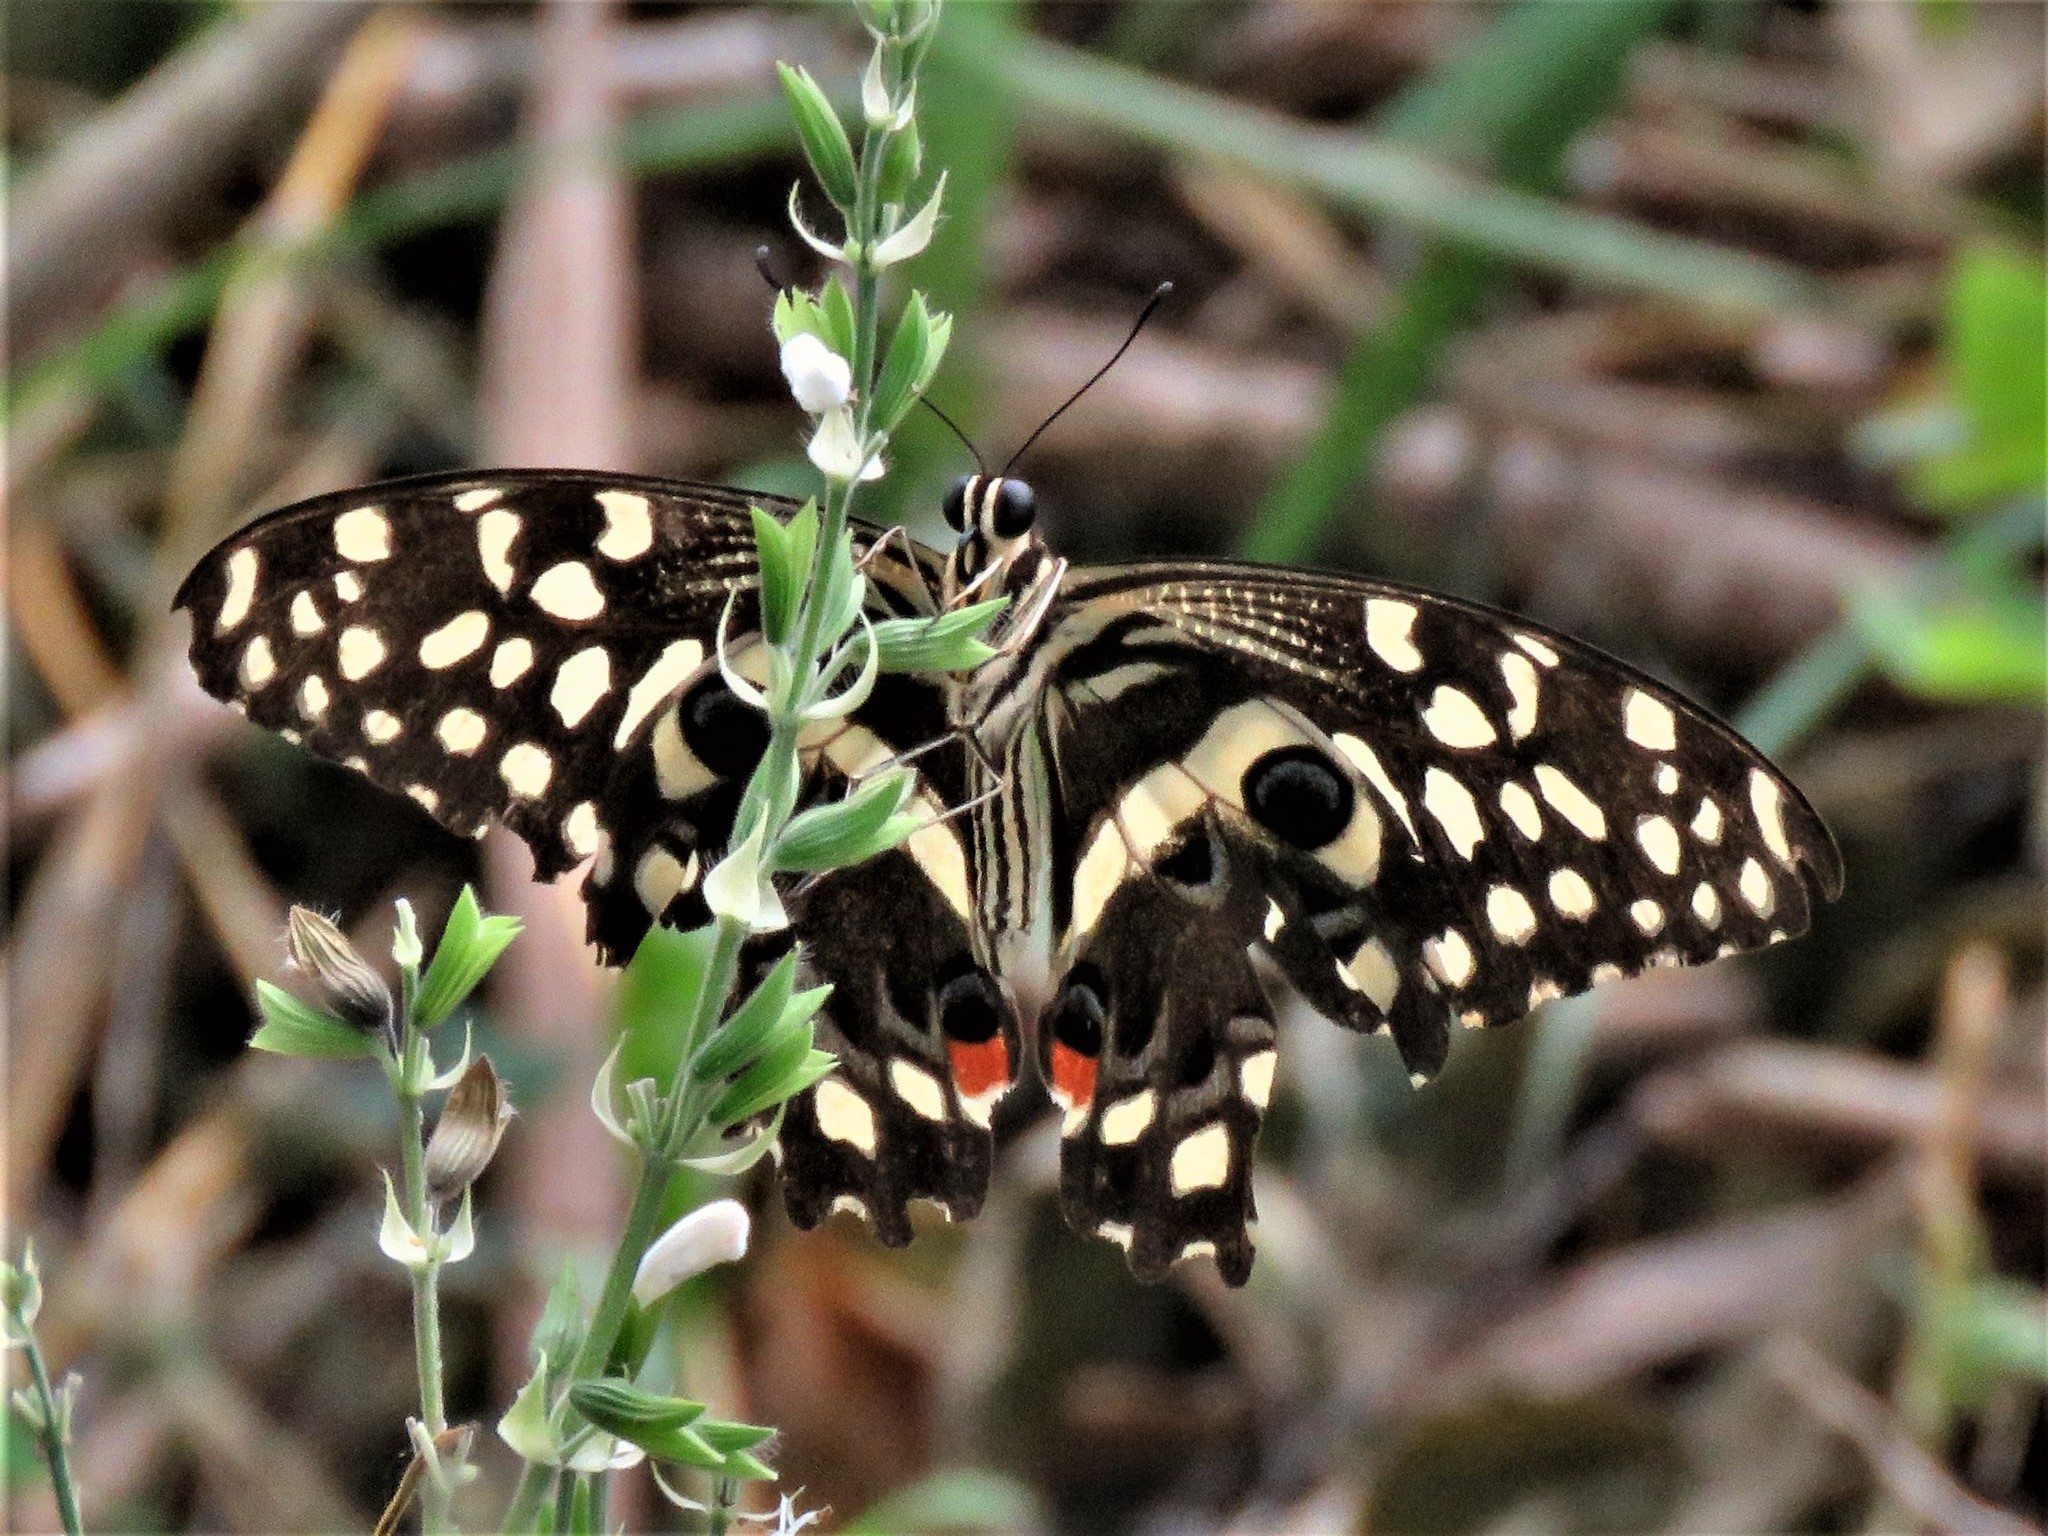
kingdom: Animalia
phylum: Arthropoda
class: Insecta
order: Lepidoptera
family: Papilionidae
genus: Papilio
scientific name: Papilio demodocus
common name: Christmas butterfly
